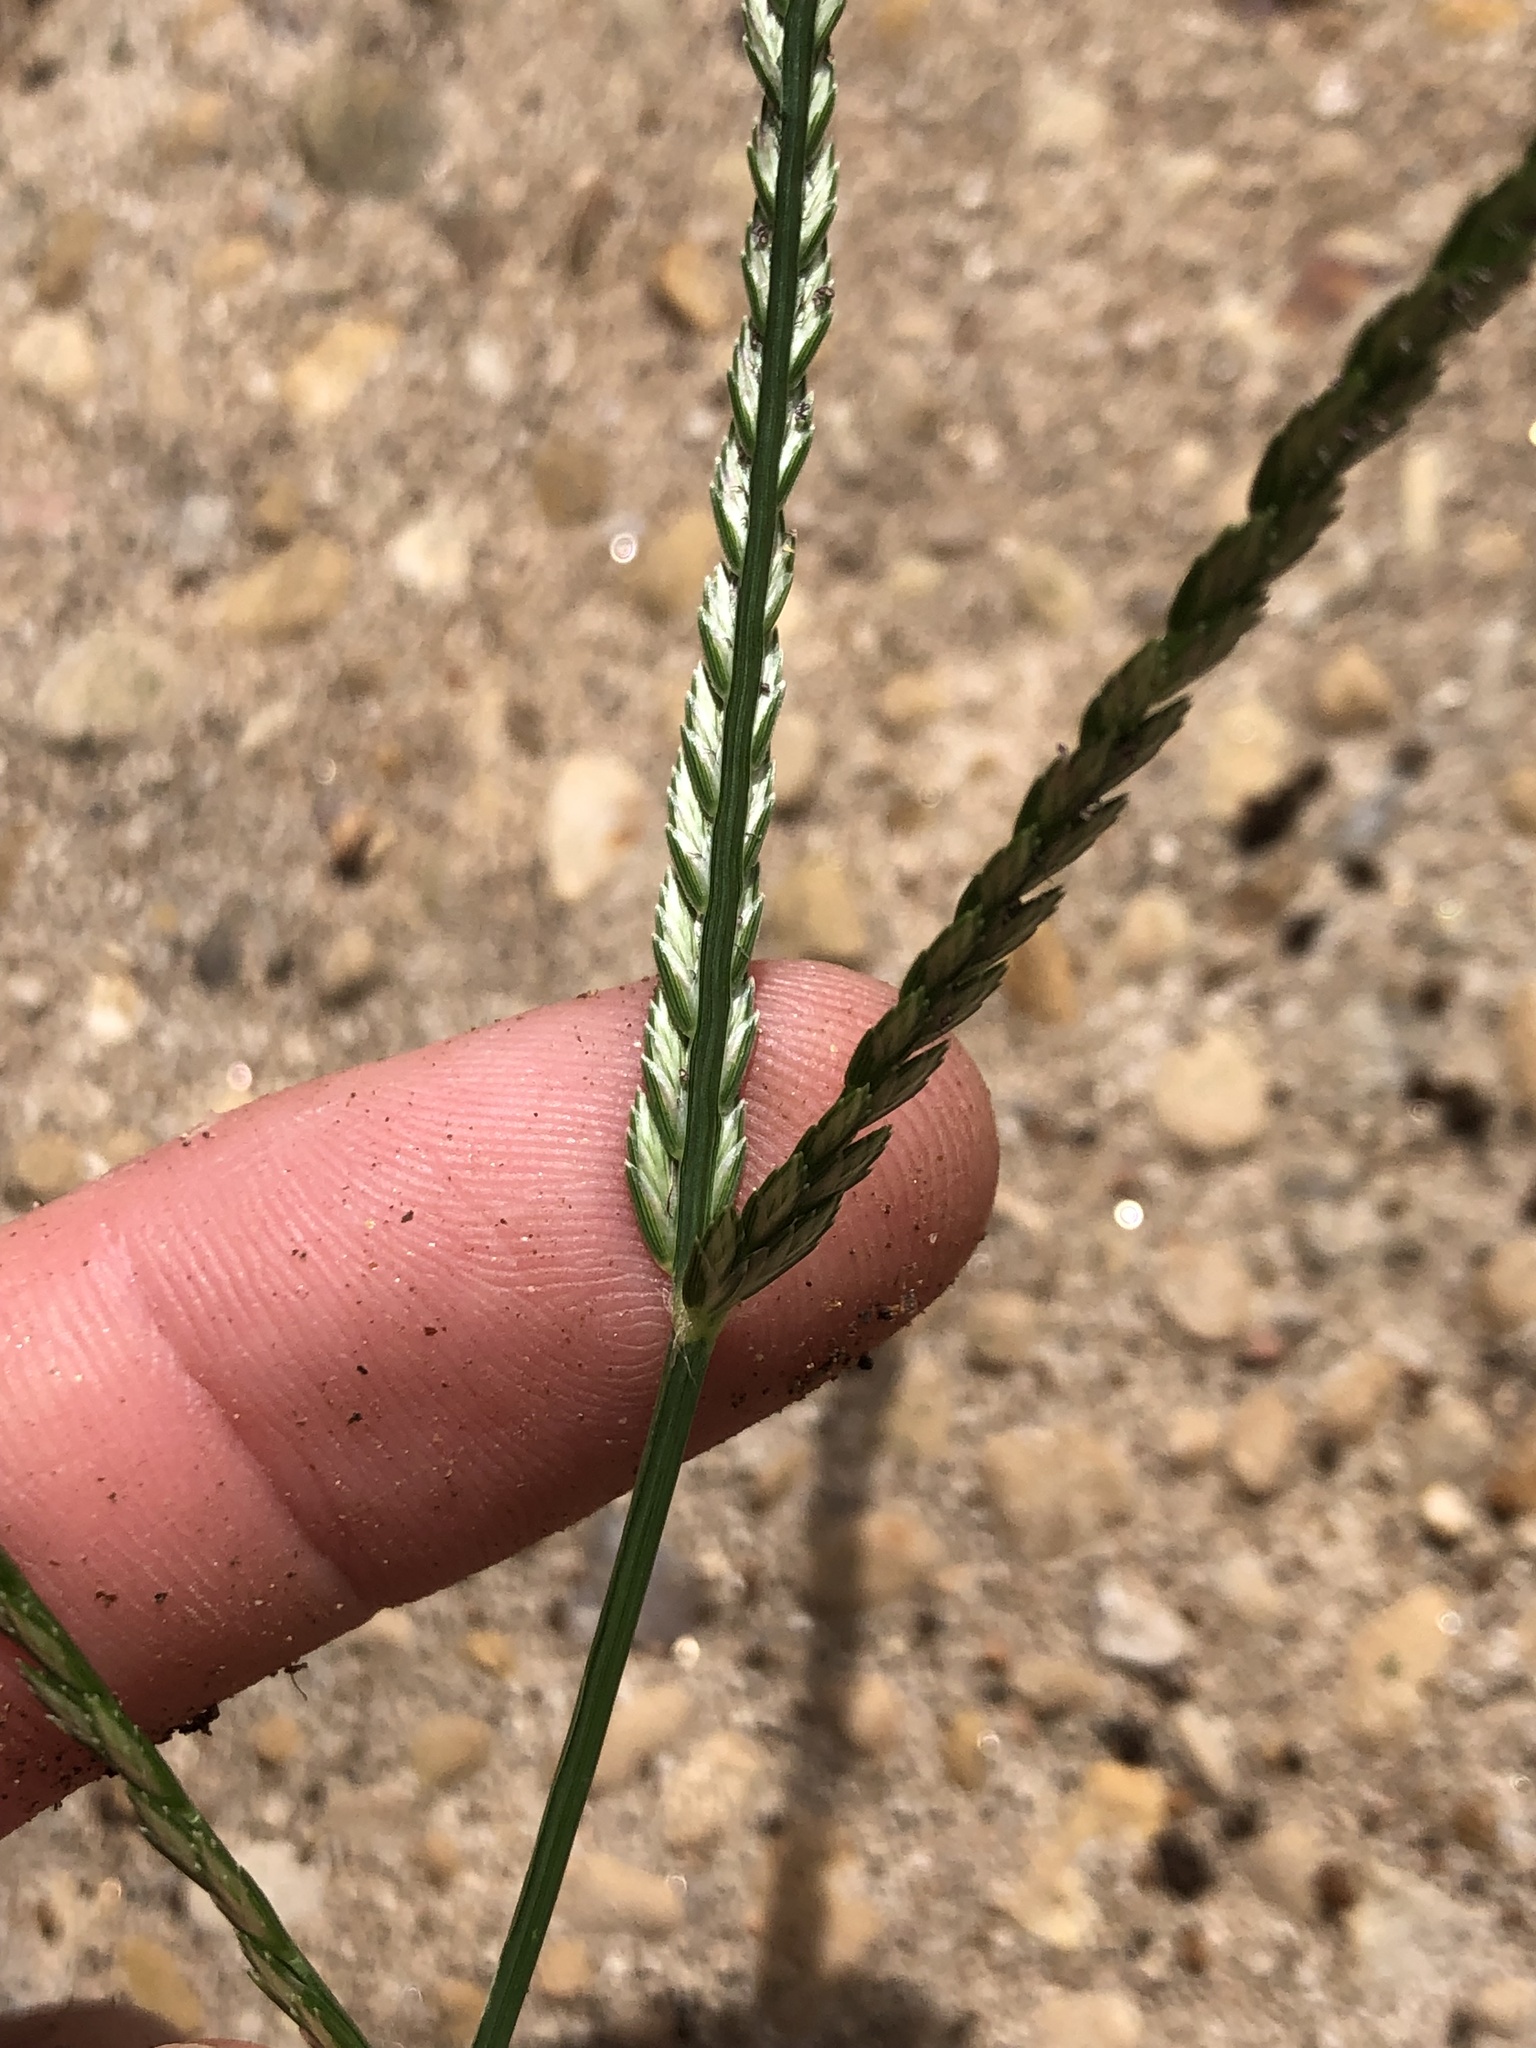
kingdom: Plantae
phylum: Tracheophyta
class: Liliopsida
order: Poales
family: Poaceae
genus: Eleusine
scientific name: Eleusine indica
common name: Yard-grass
